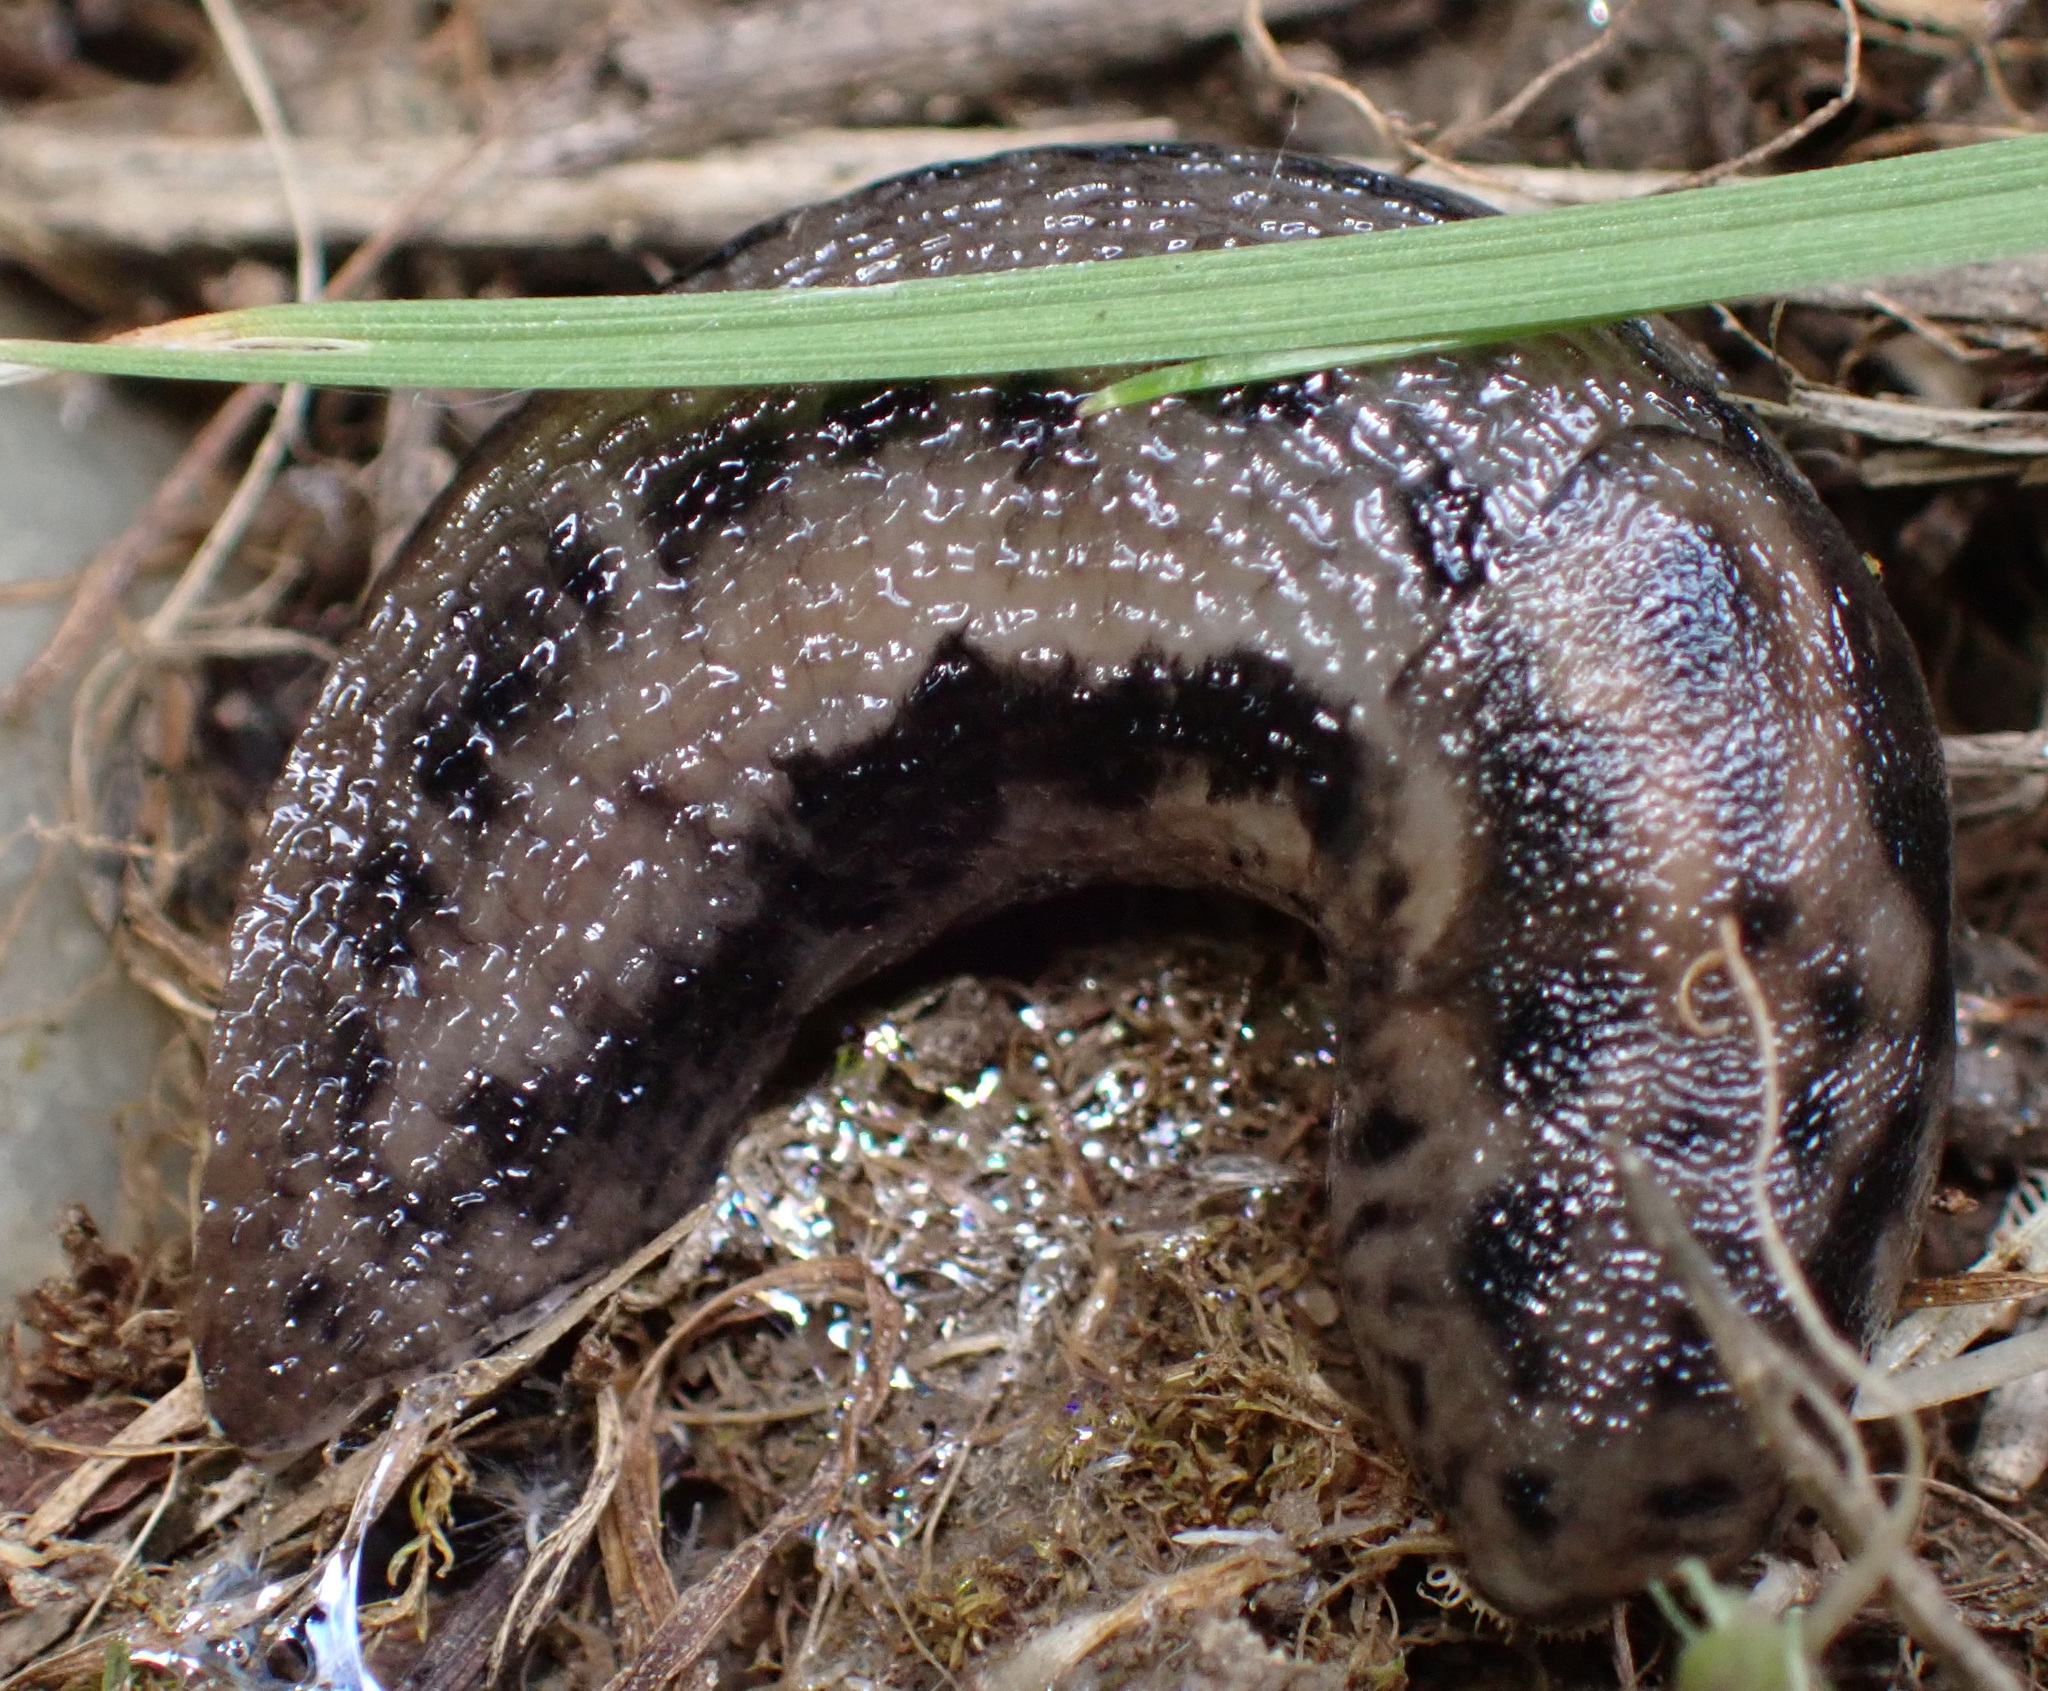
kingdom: Animalia
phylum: Mollusca
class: Gastropoda
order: Stylommatophora
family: Limacidae
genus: Limax
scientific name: Limax maximus
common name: Great grey slug
